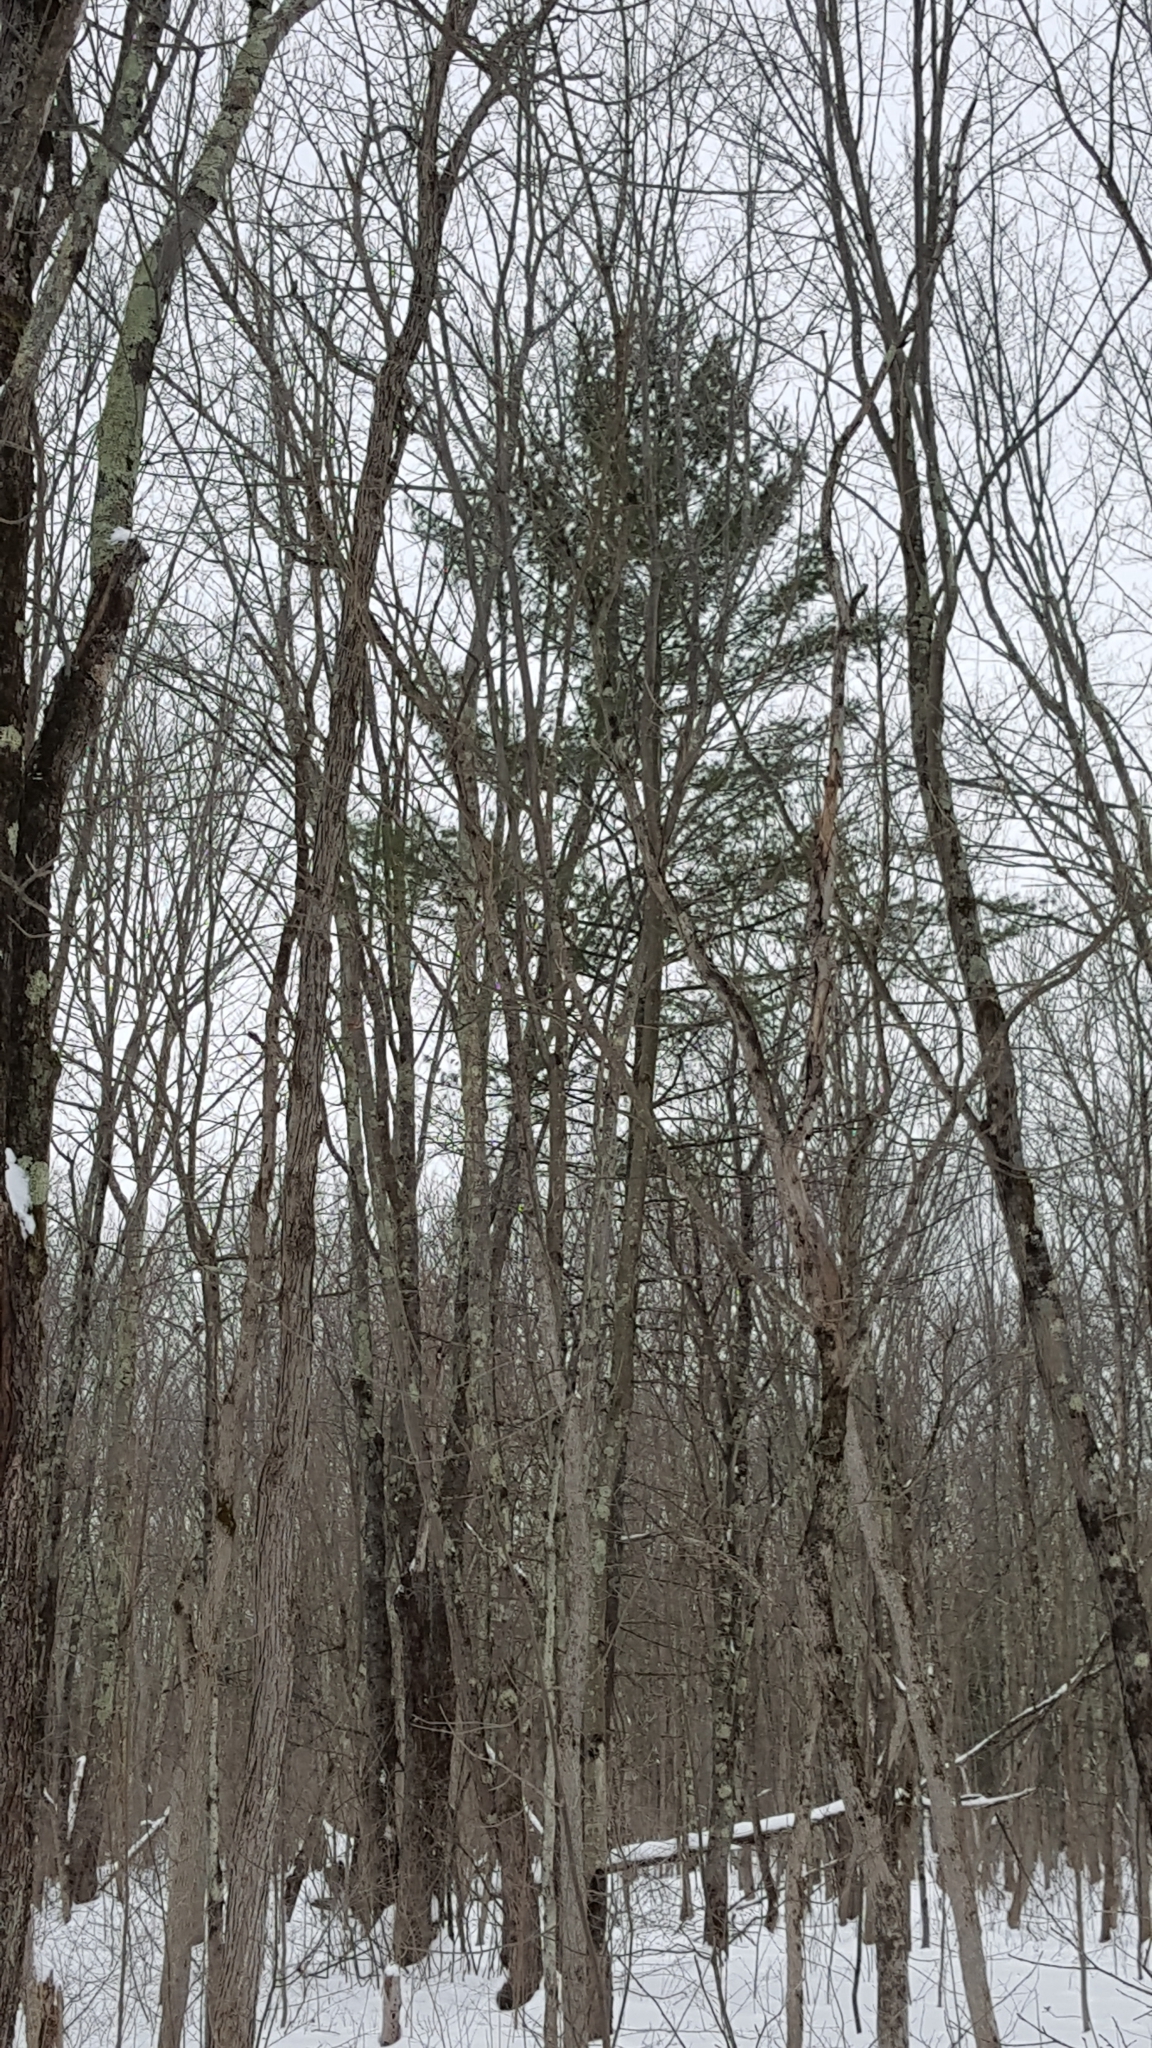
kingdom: Plantae
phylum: Tracheophyta
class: Pinopsida
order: Pinales
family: Pinaceae
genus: Pinus
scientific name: Pinus strobus
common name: Weymouth pine
